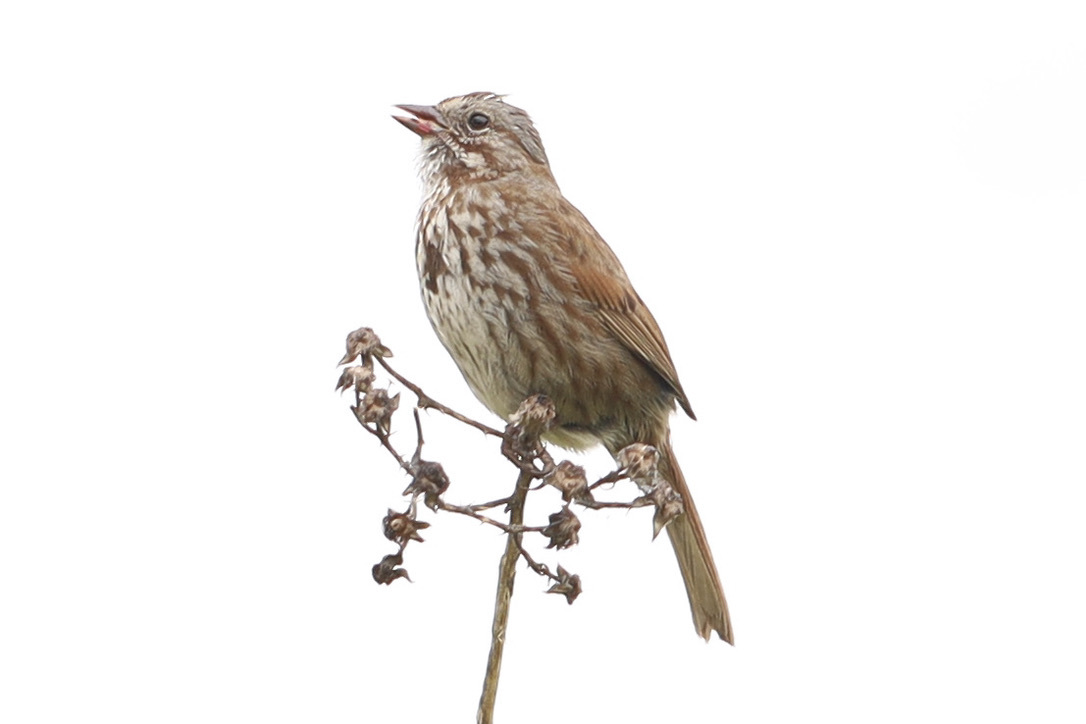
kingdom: Animalia
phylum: Chordata
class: Aves
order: Passeriformes
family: Passerellidae
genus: Melospiza
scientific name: Melospiza melodia
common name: Song sparrow
